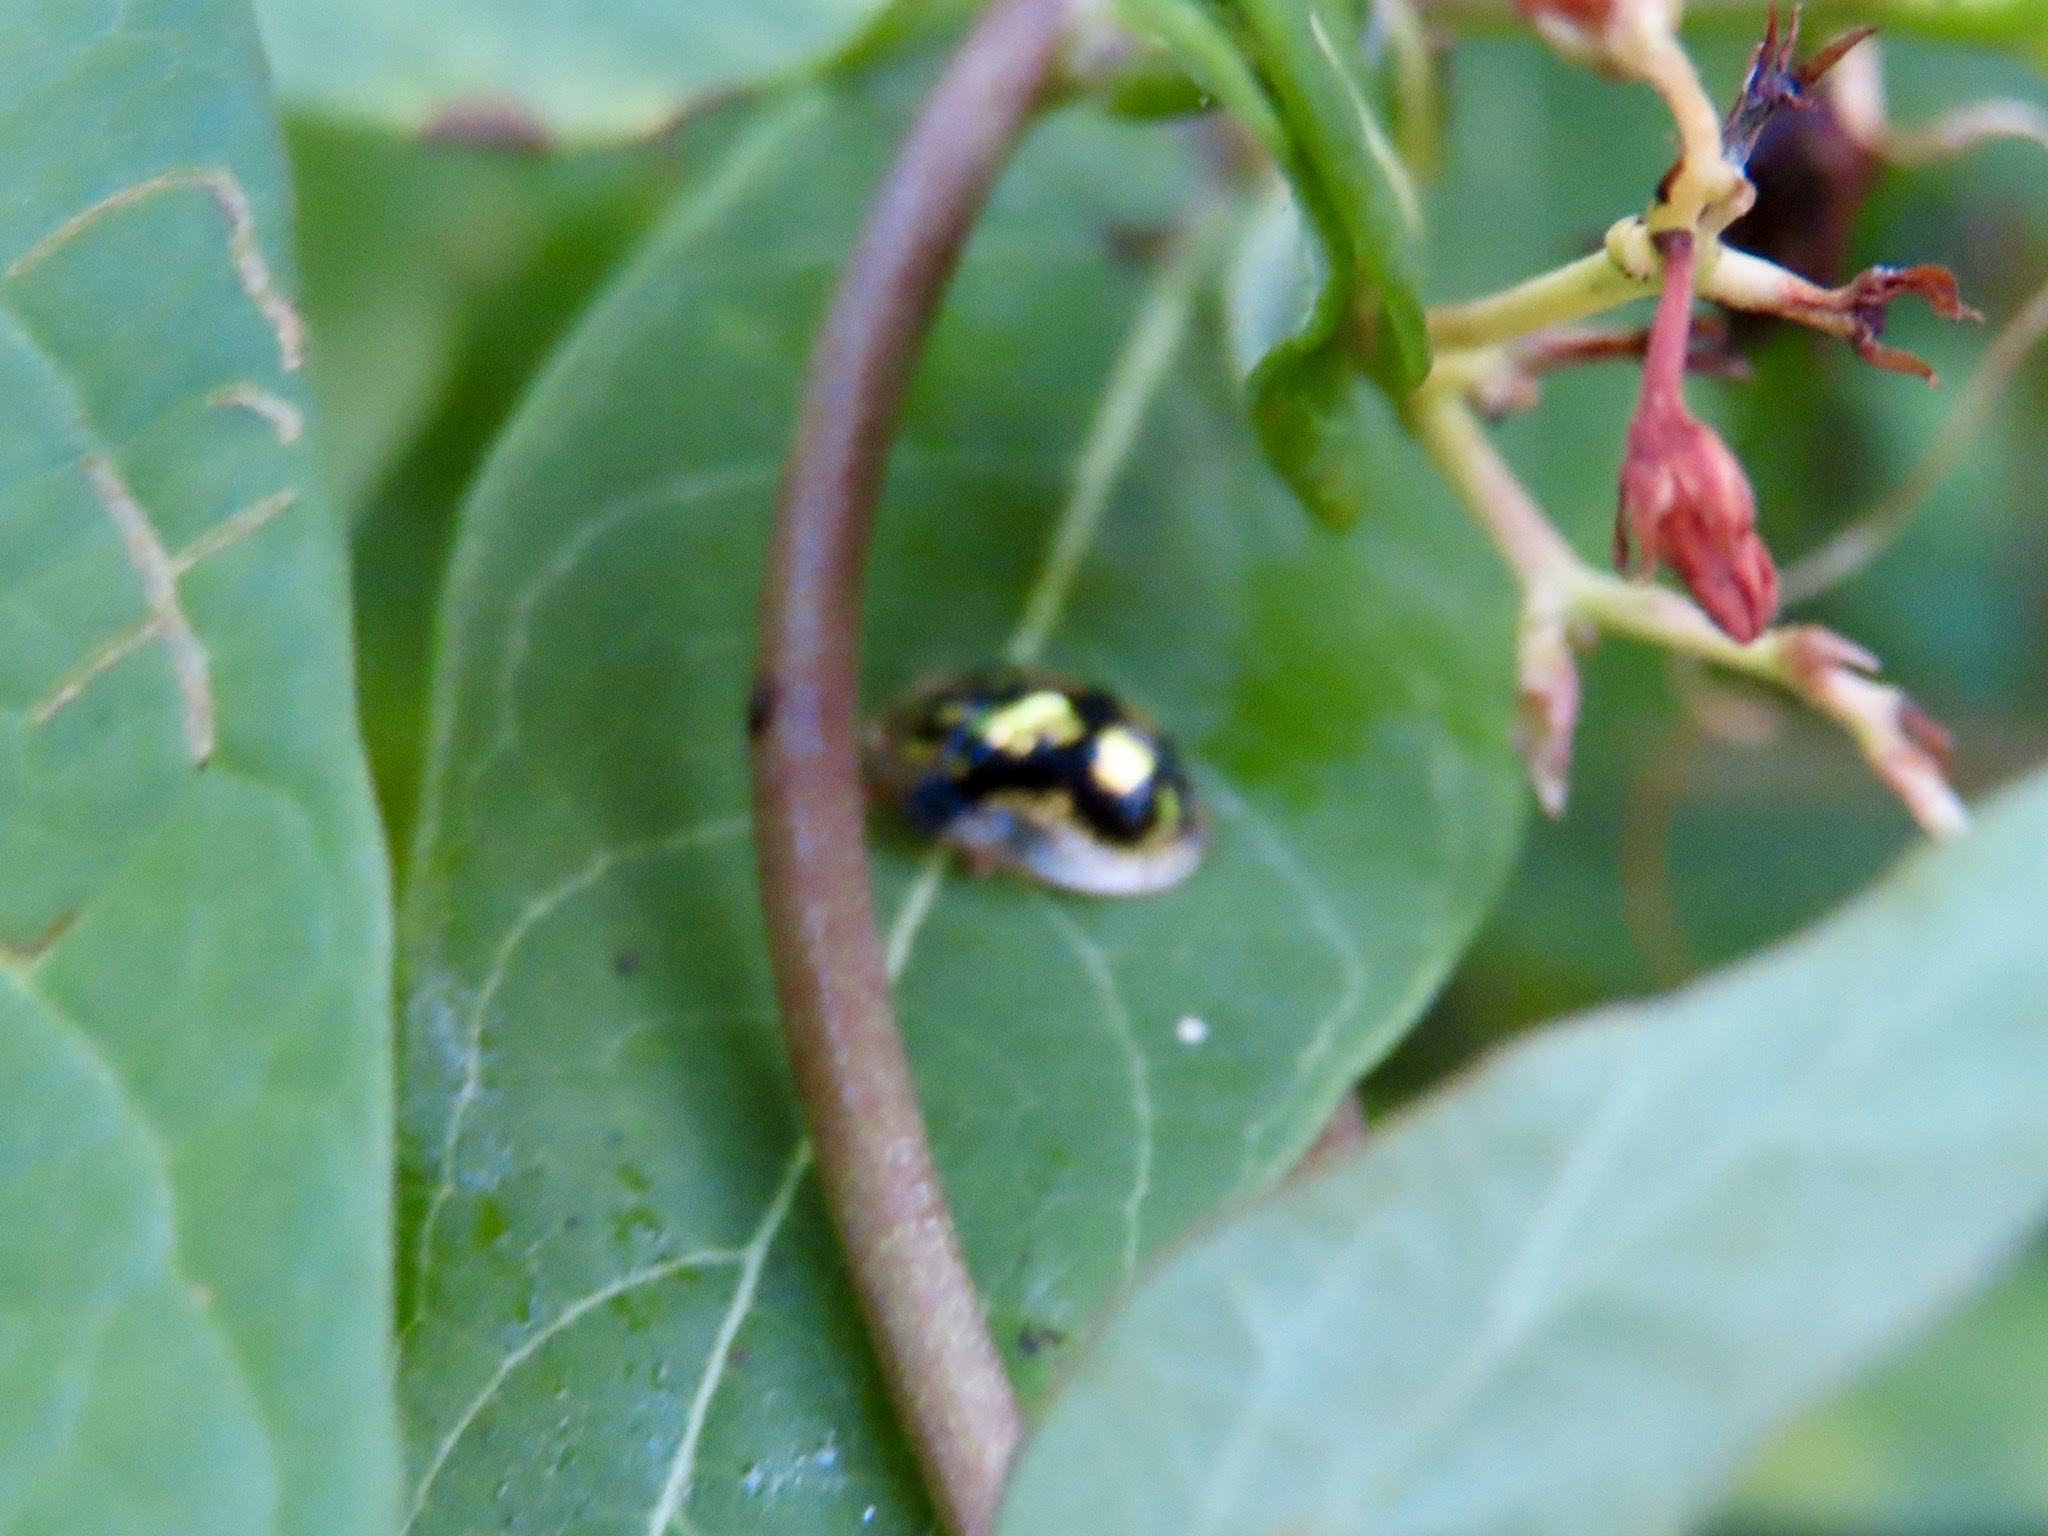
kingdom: Animalia
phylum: Arthropoda
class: Insecta
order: Coleoptera
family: Chrysomelidae
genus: Deloyala
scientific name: Deloyala guttata
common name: Mottled tortoise beetle
